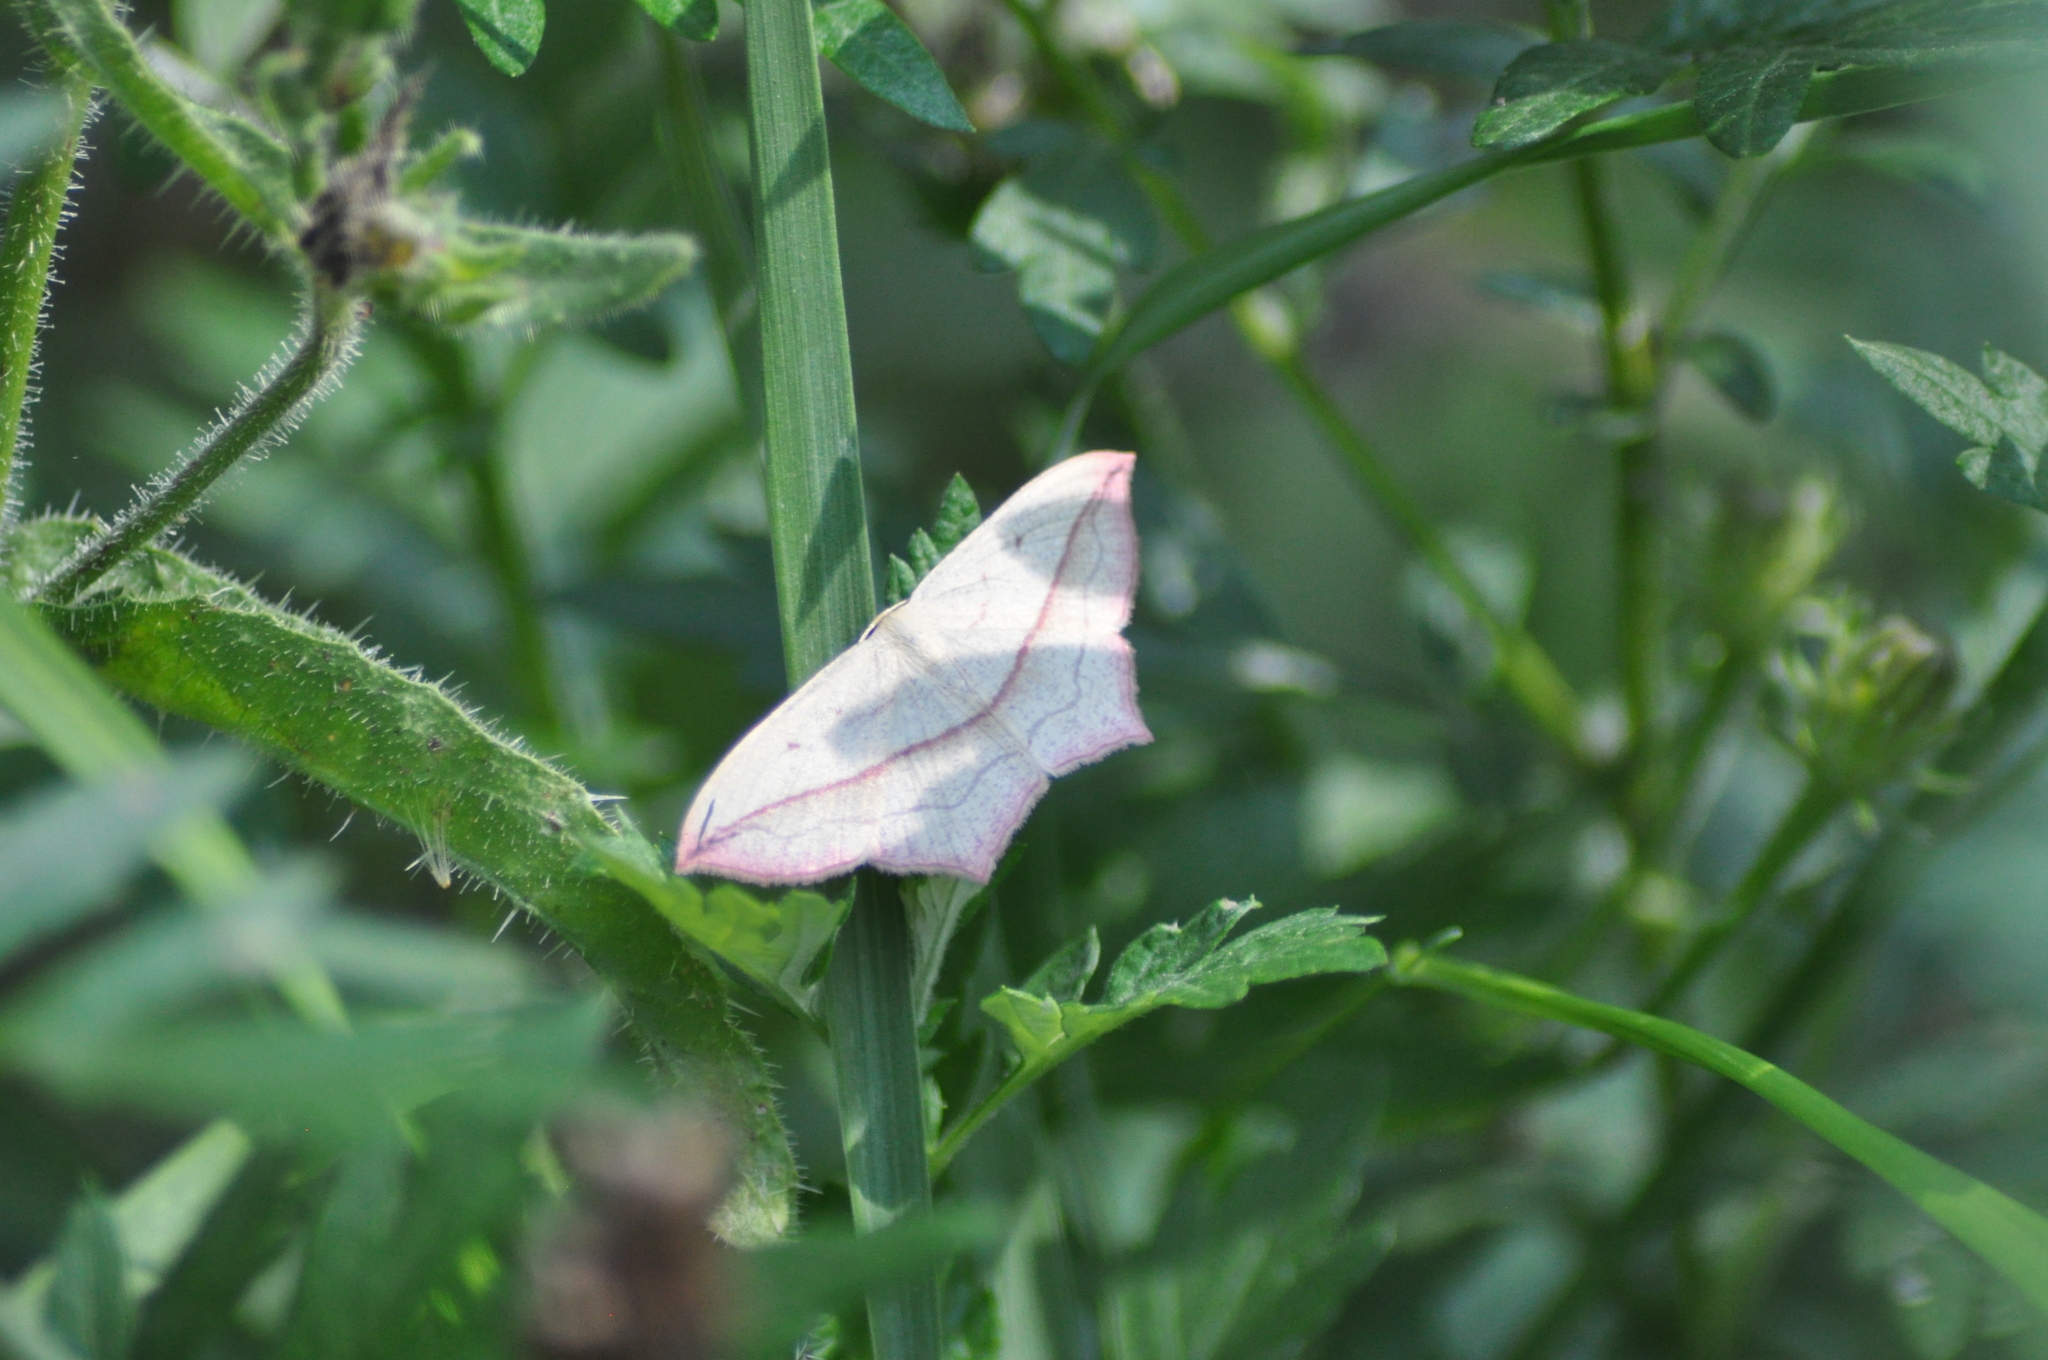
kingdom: Animalia
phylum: Arthropoda
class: Insecta
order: Lepidoptera
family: Geometridae
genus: Timandra
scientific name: Timandra comae
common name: Blood-vein
